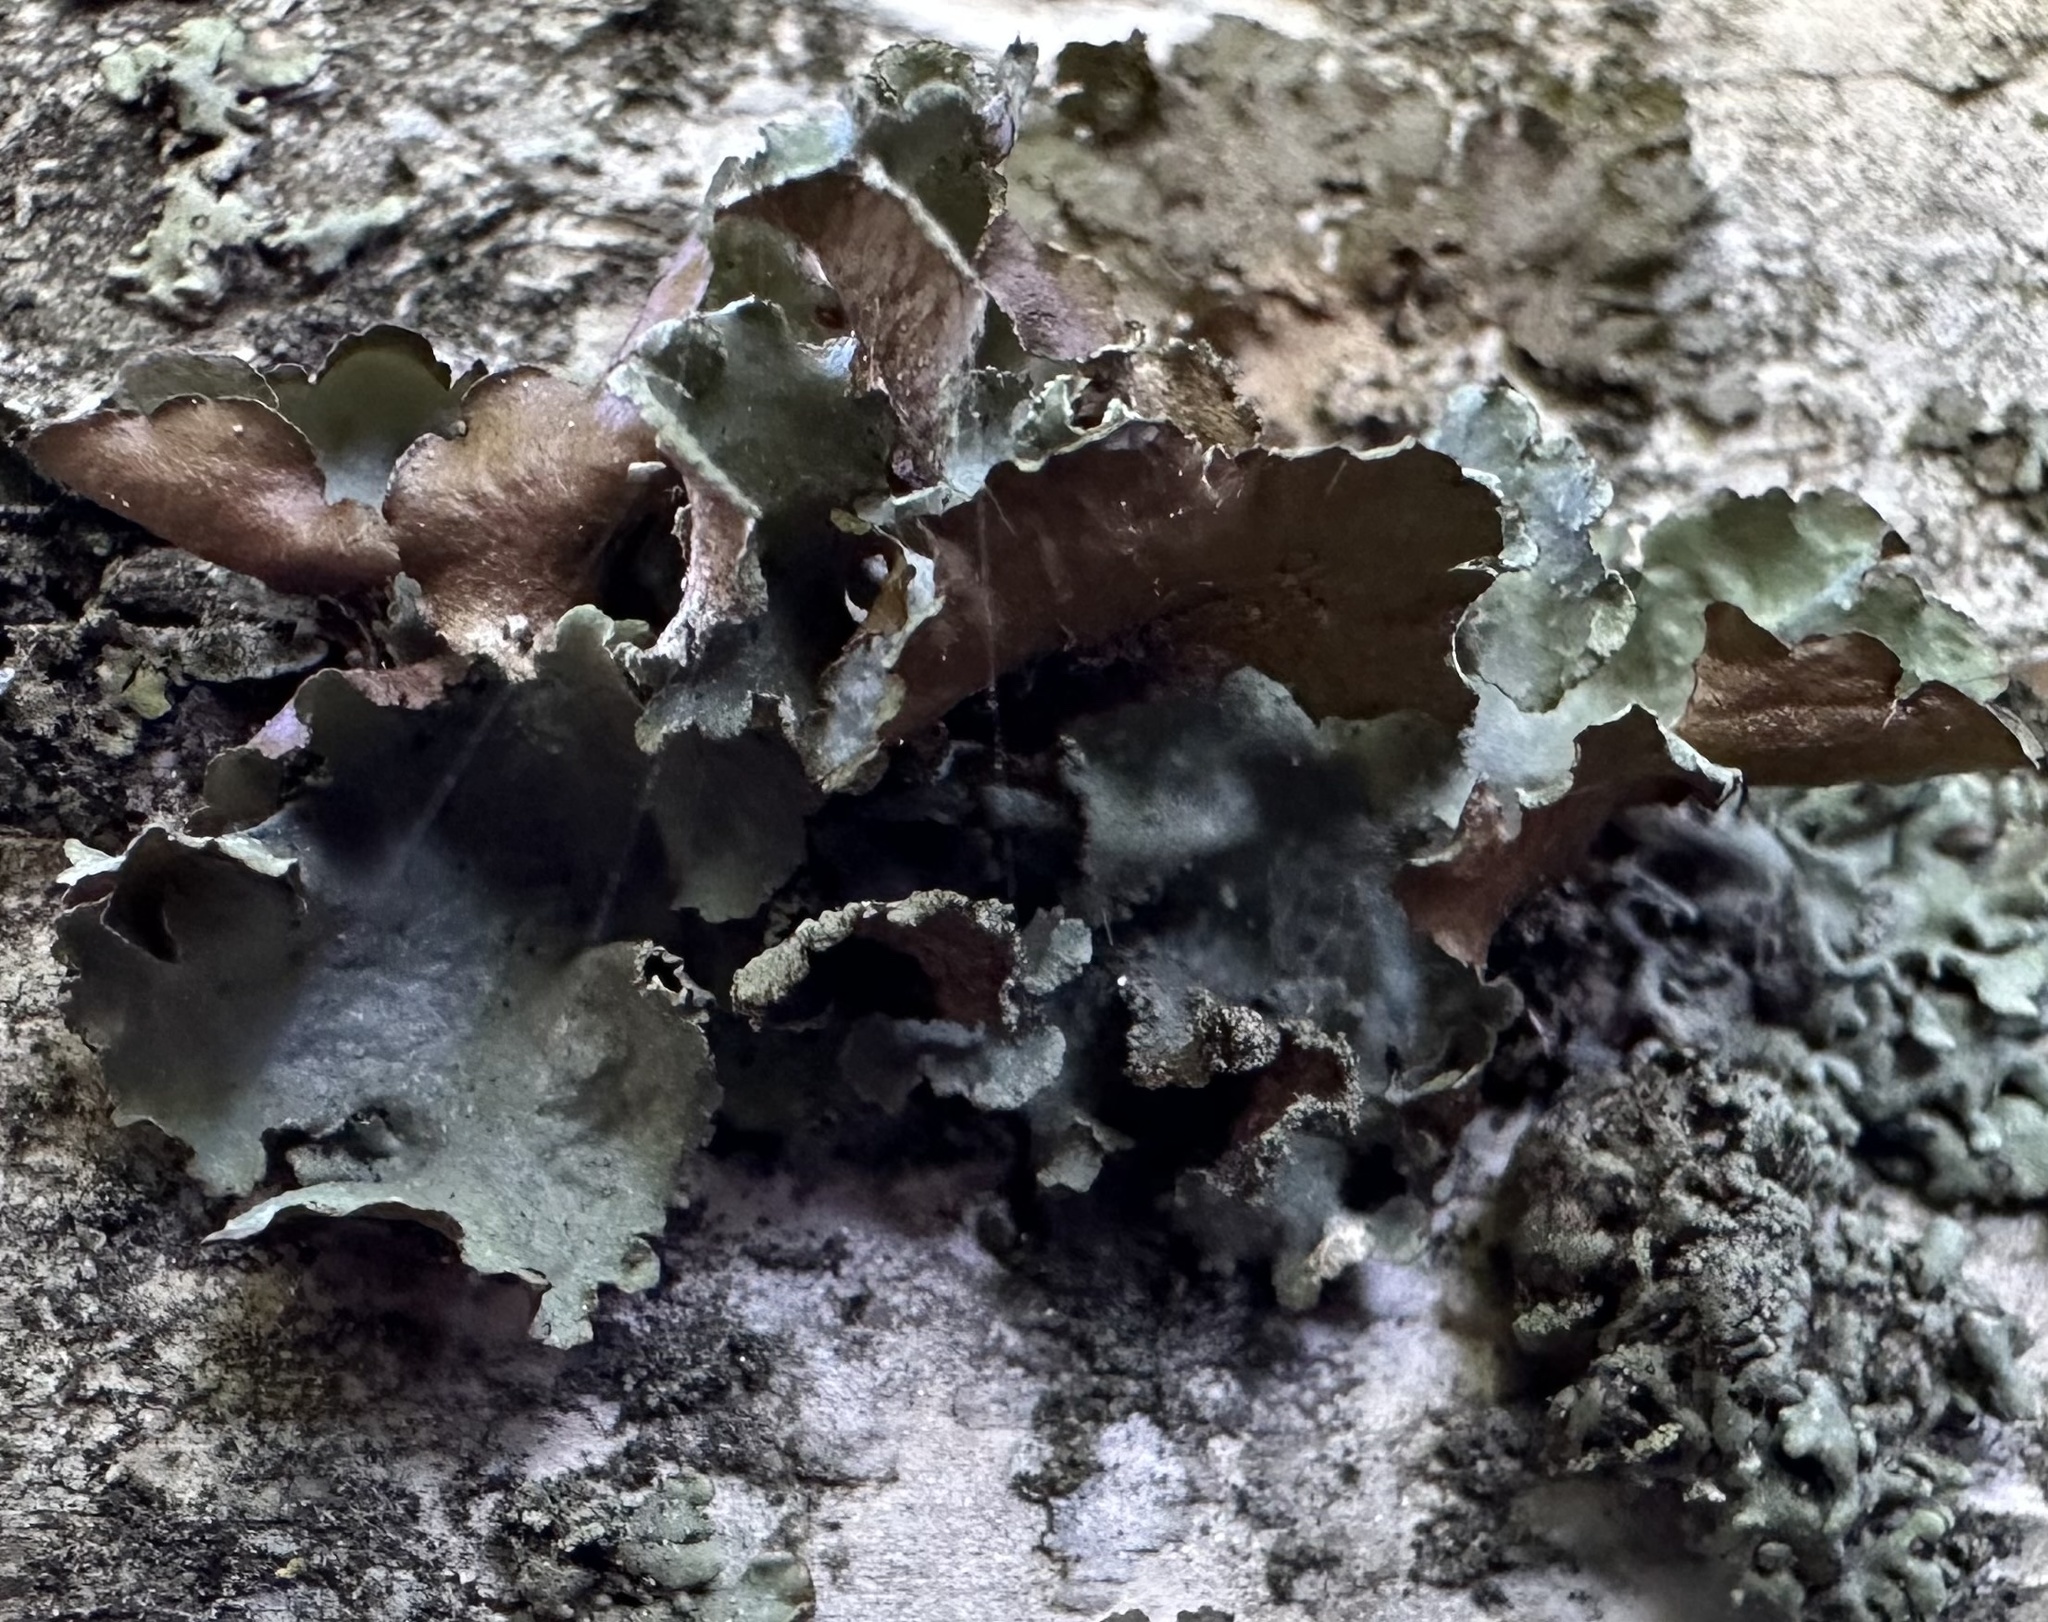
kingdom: Fungi
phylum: Ascomycota
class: Lecanoromycetes
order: Lecanorales
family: Parmeliaceae
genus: Platismatia
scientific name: Platismatia glauca
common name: Varied rag lichen
